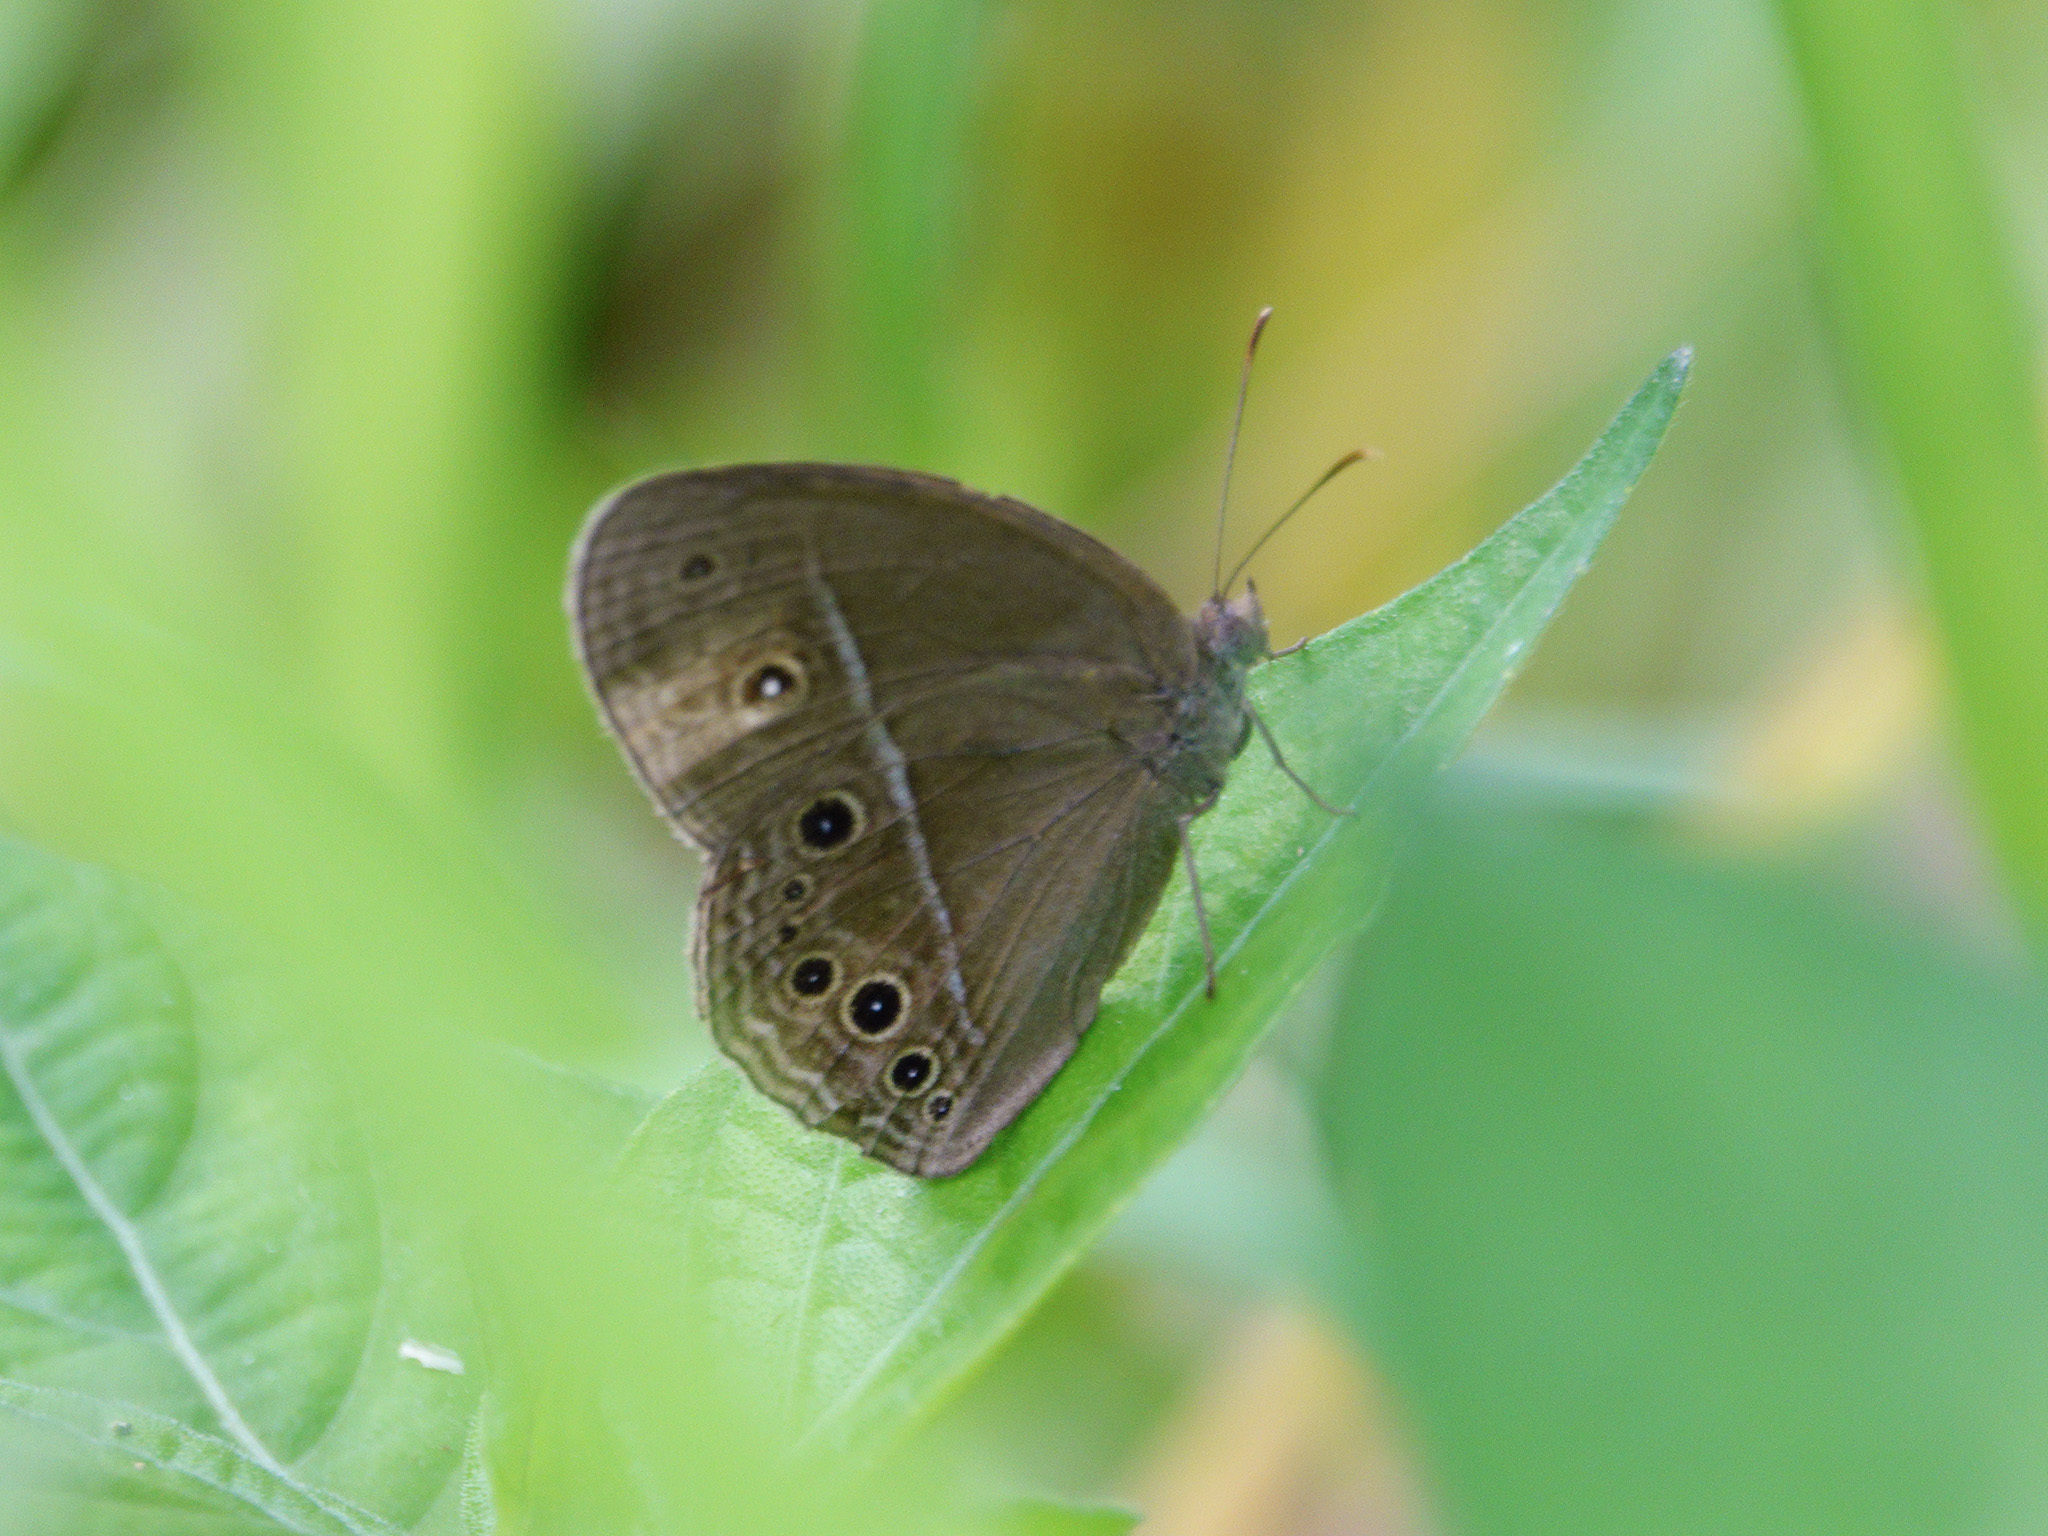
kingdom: Animalia
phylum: Arthropoda
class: Insecta
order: Lepidoptera
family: Nymphalidae
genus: Mycalesis
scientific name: Mycalesis perseus
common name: Dingy bushbrown
